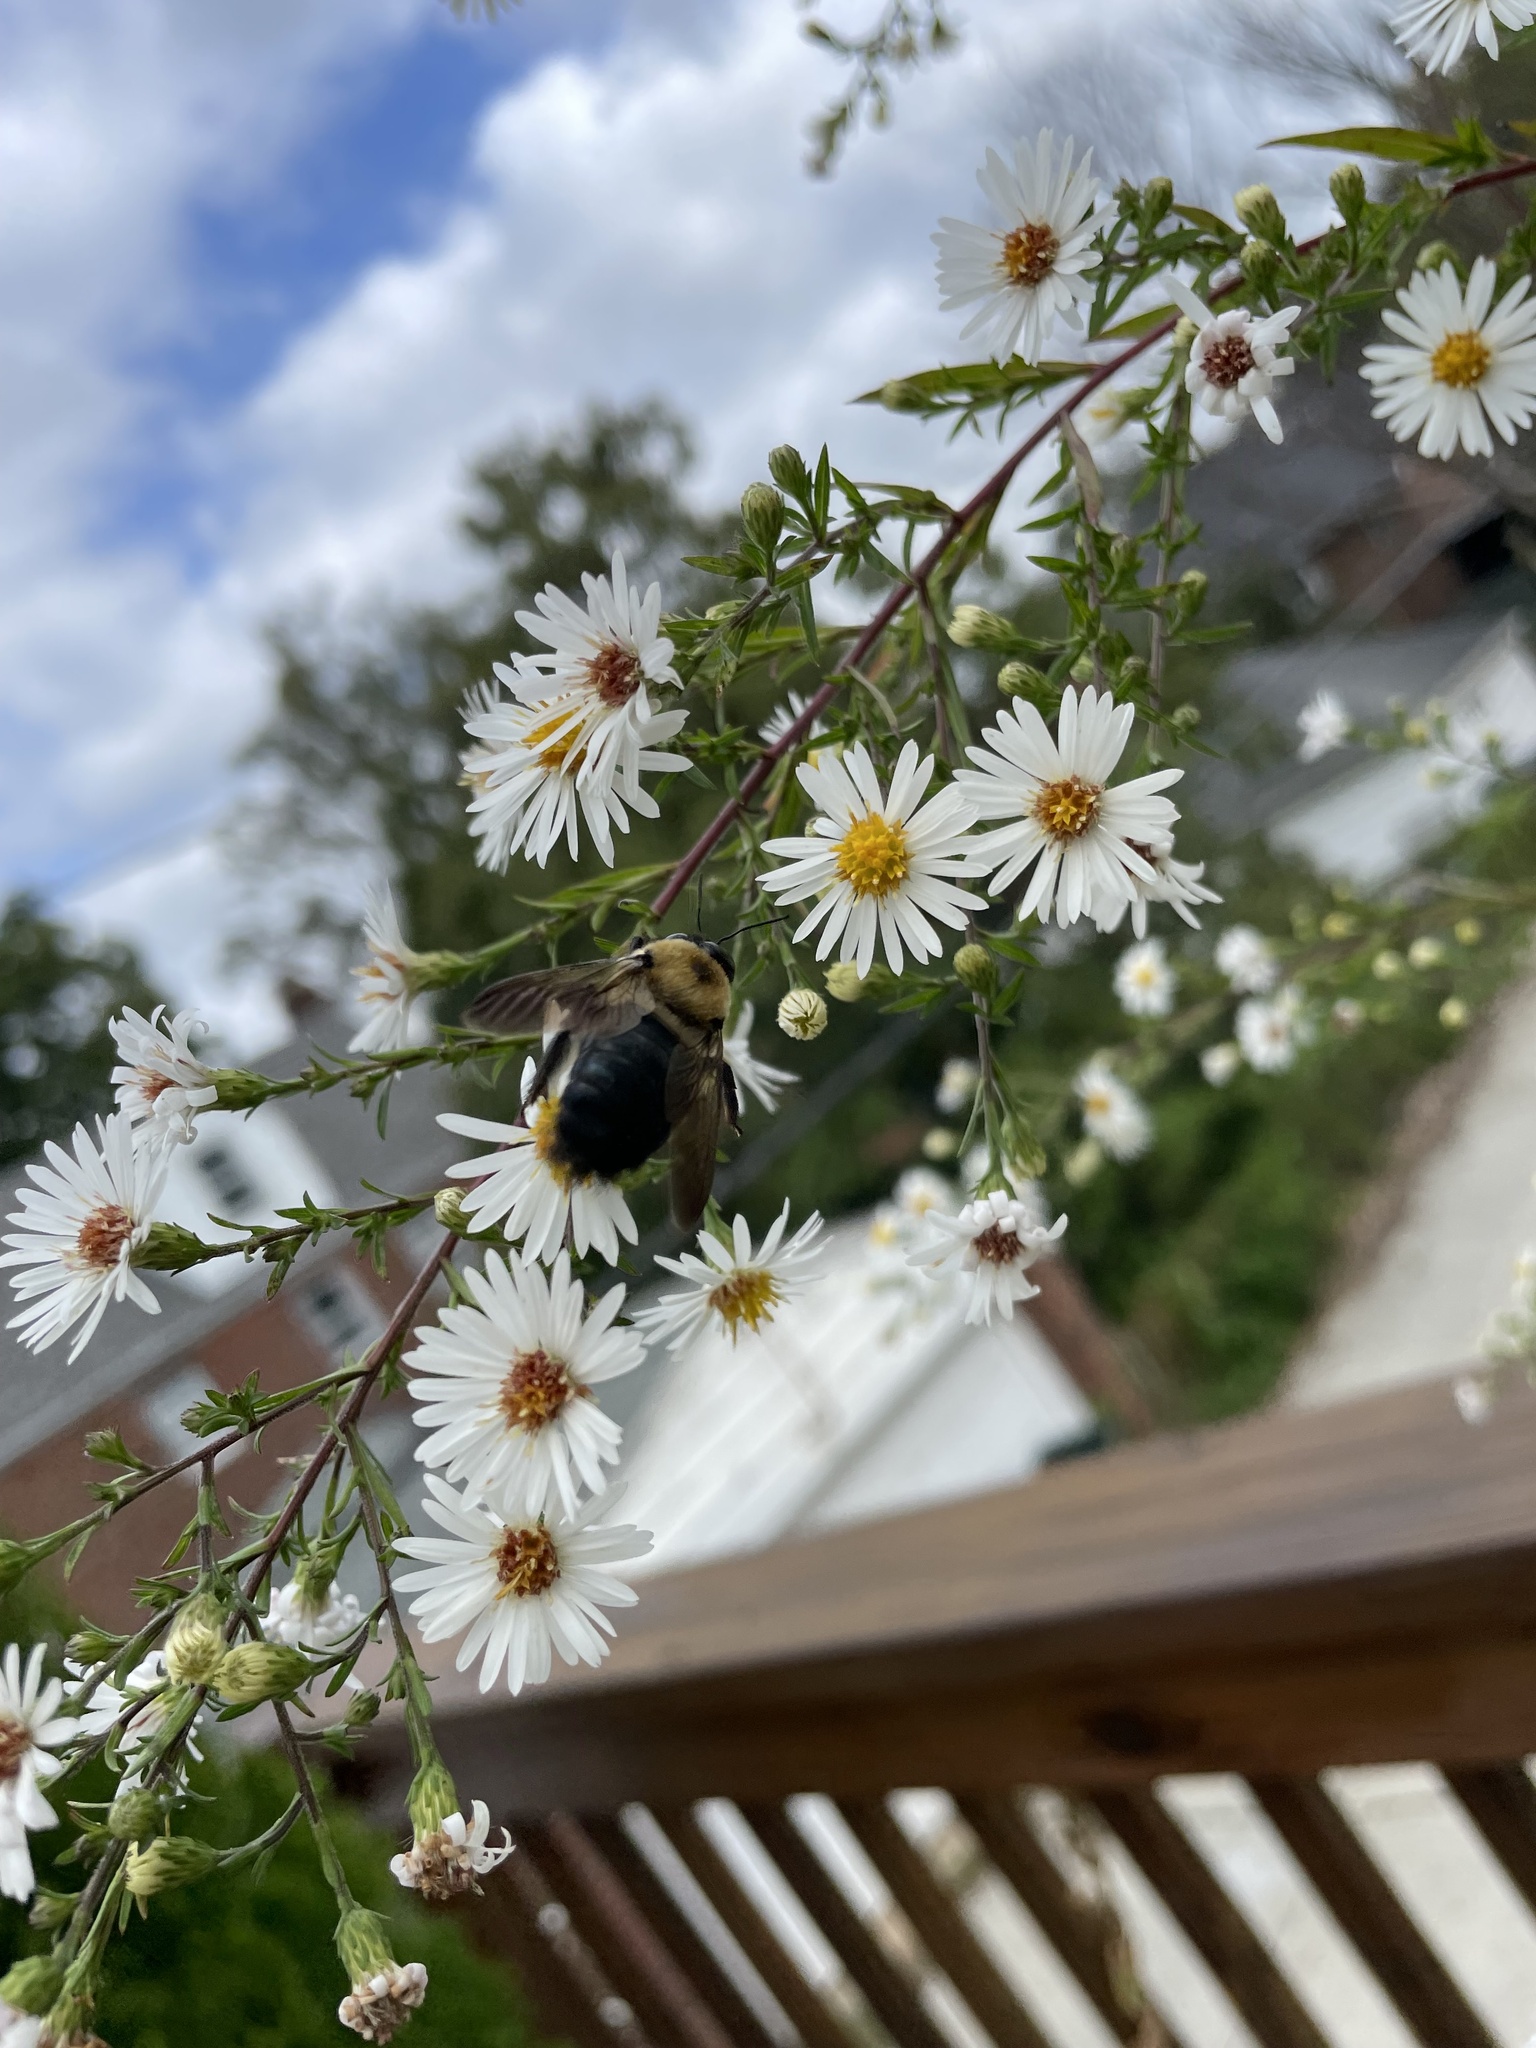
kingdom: Animalia
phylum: Arthropoda
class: Insecta
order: Hymenoptera
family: Apidae
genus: Xylocopa
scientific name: Xylocopa virginica
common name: Carpenter bee
